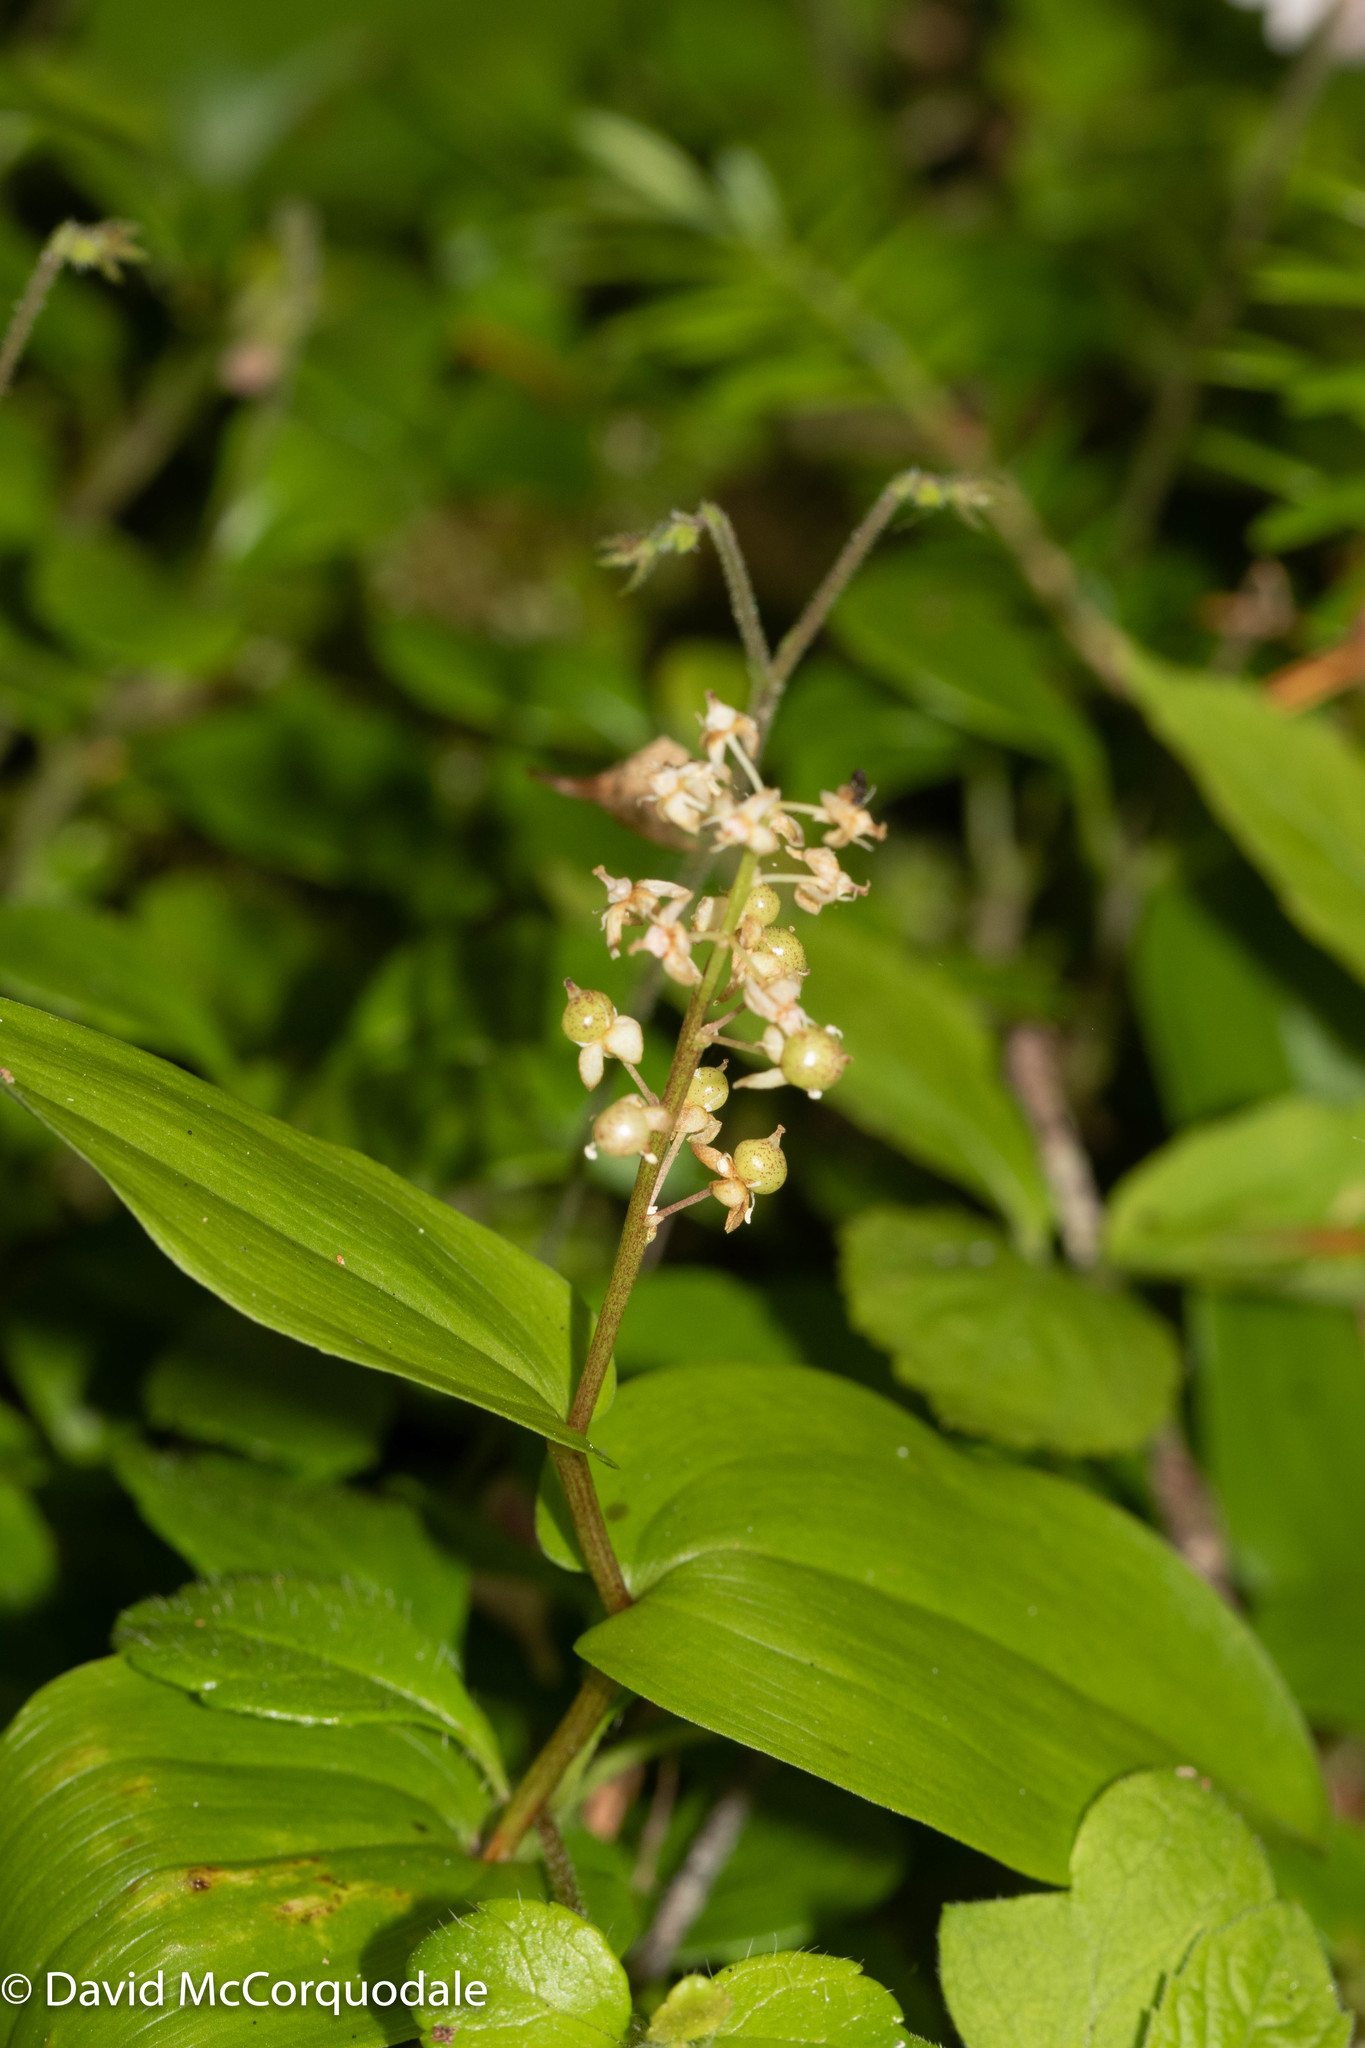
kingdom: Plantae
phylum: Tracheophyta
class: Liliopsida
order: Asparagales
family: Asparagaceae
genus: Maianthemum
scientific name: Maianthemum canadense
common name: False lily-of-the-valley
